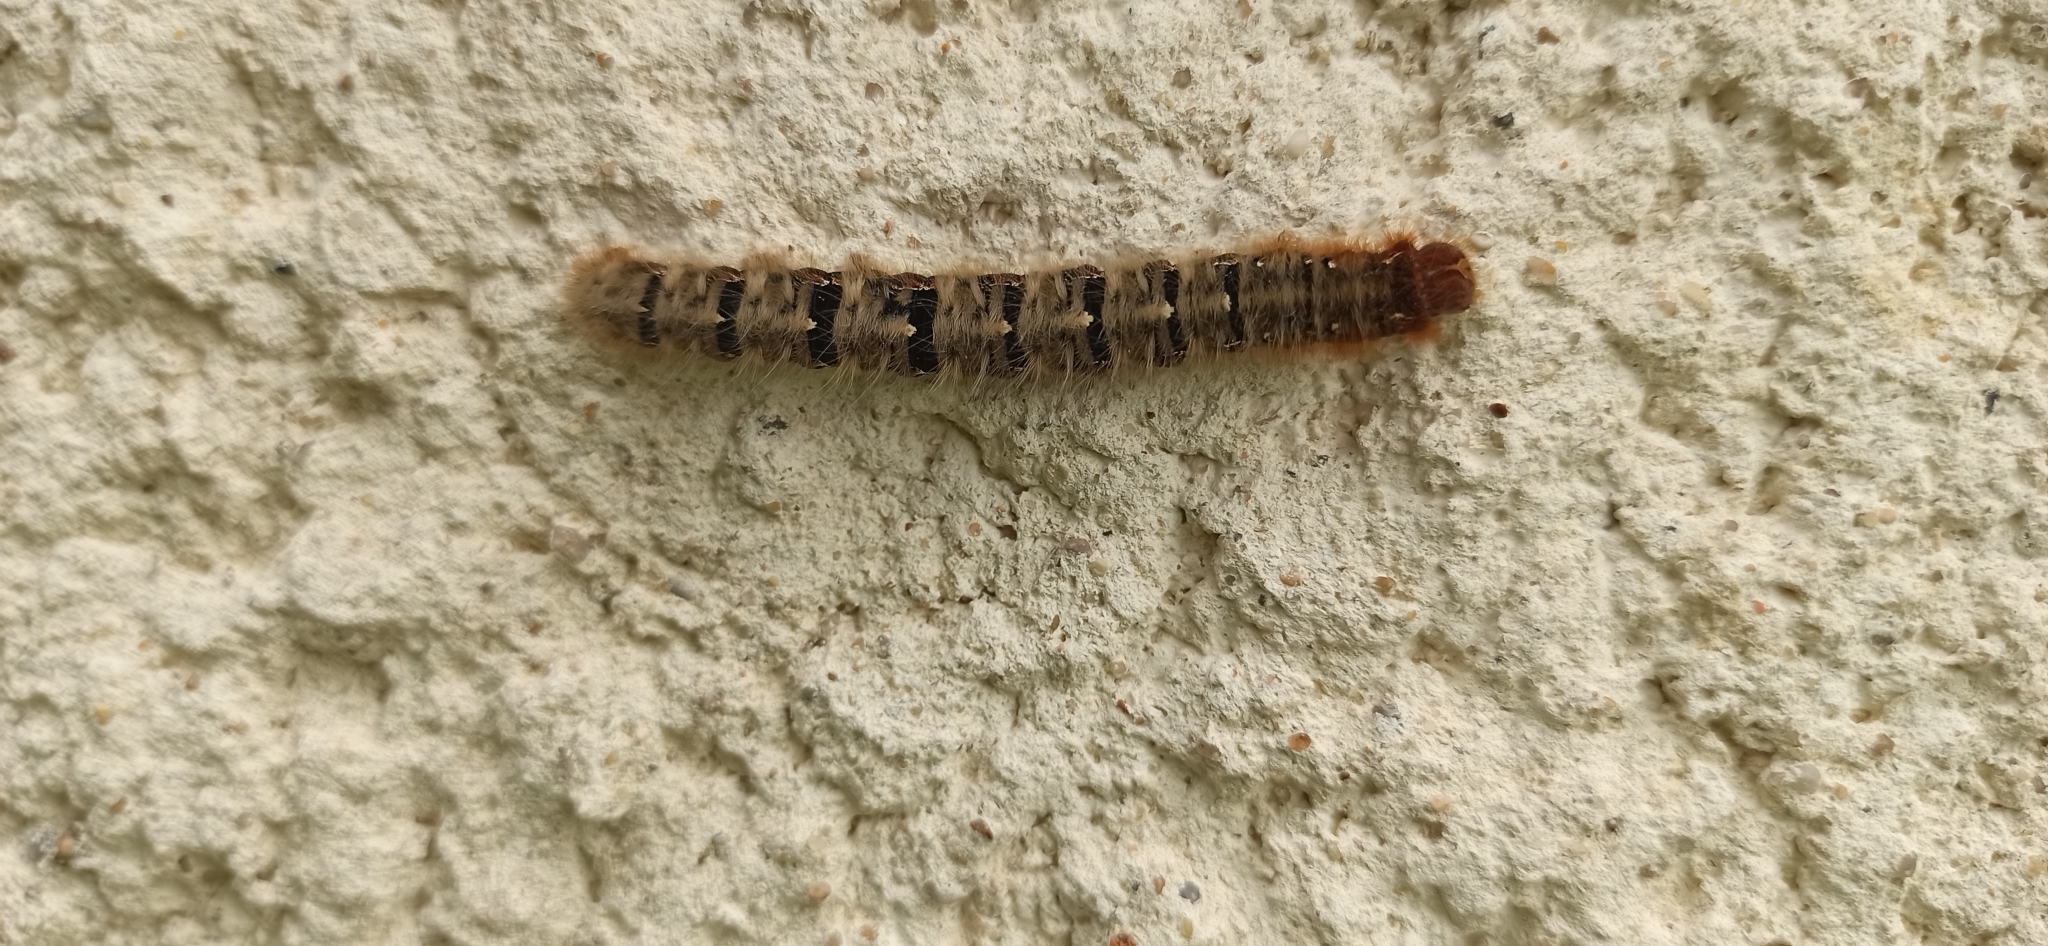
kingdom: Animalia
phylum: Arthropoda
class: Insecta
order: Lepidoptera
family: Lasiocampidae
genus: Lasiocampa
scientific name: Lasiocampa quercus
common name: Oak eggar
